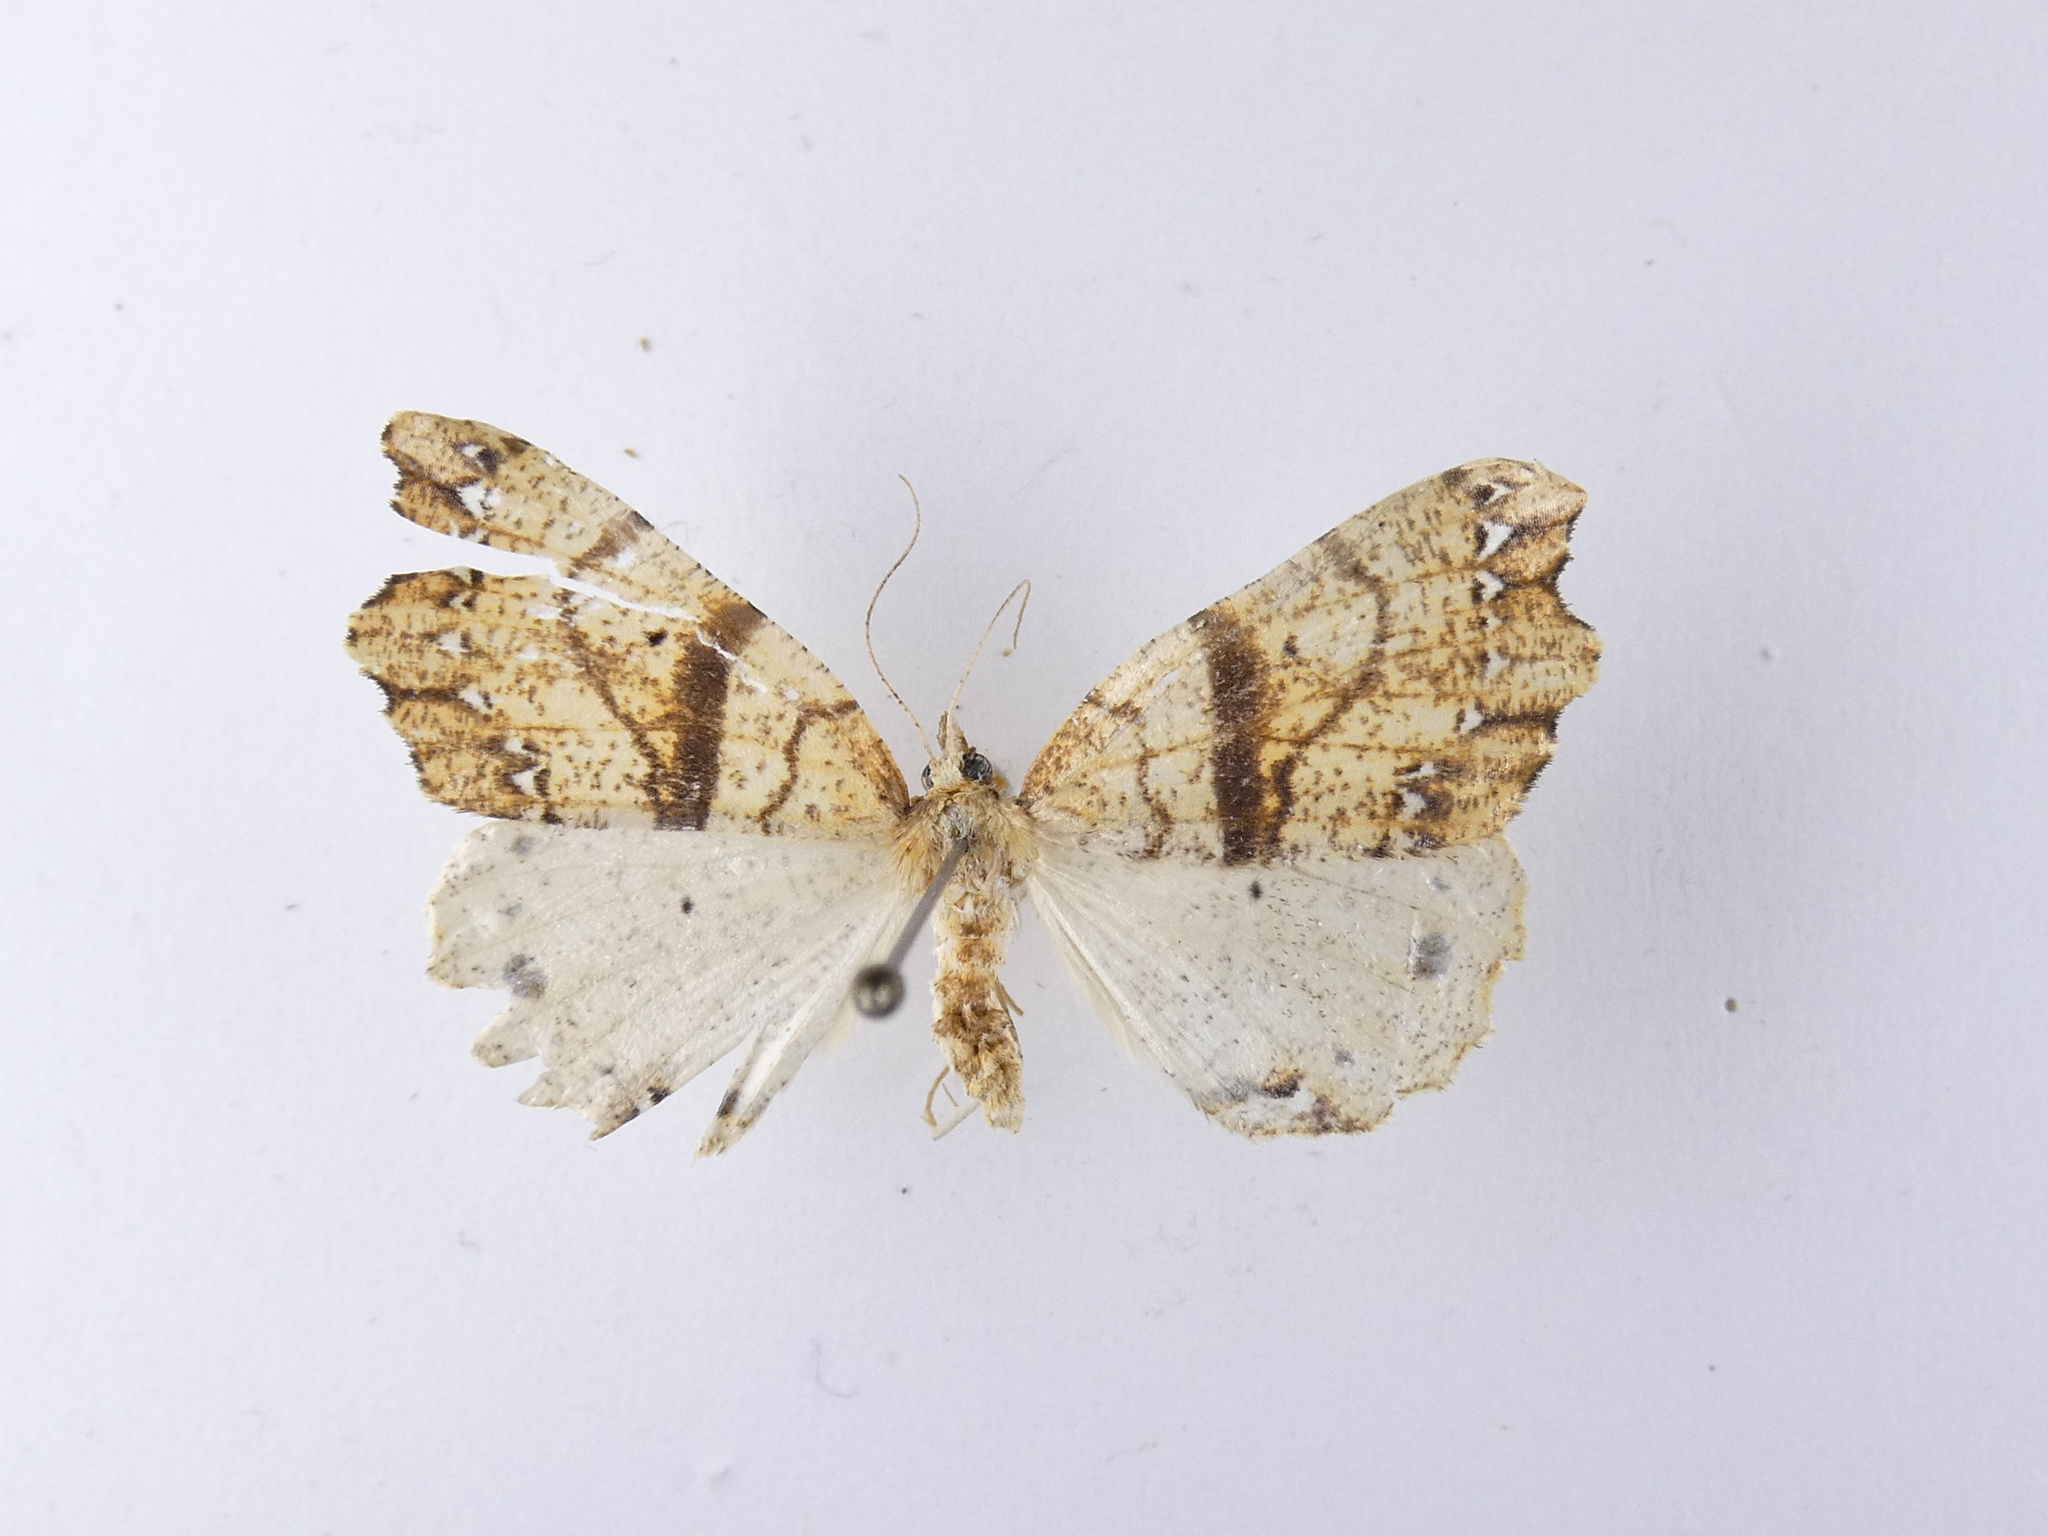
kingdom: Animalia
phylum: Arthropoda
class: Insecta
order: Lepidoptera
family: Geometridae
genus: Chalastra
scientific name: Chalastra pellurgata
